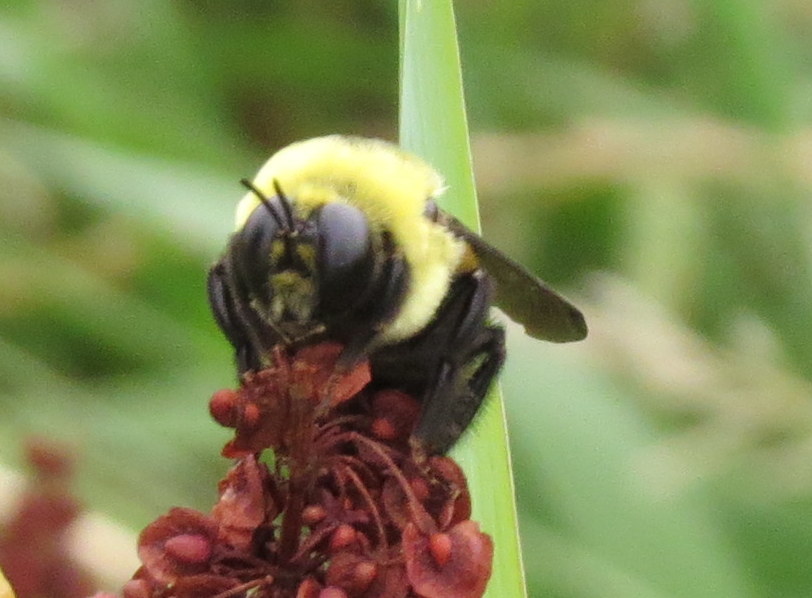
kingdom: Animalia
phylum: Arthropoda
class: Insecta
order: Hymenoptera
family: Apidae
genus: Bombus
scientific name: Bombus auricomus
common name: Black and gold bumble bee
